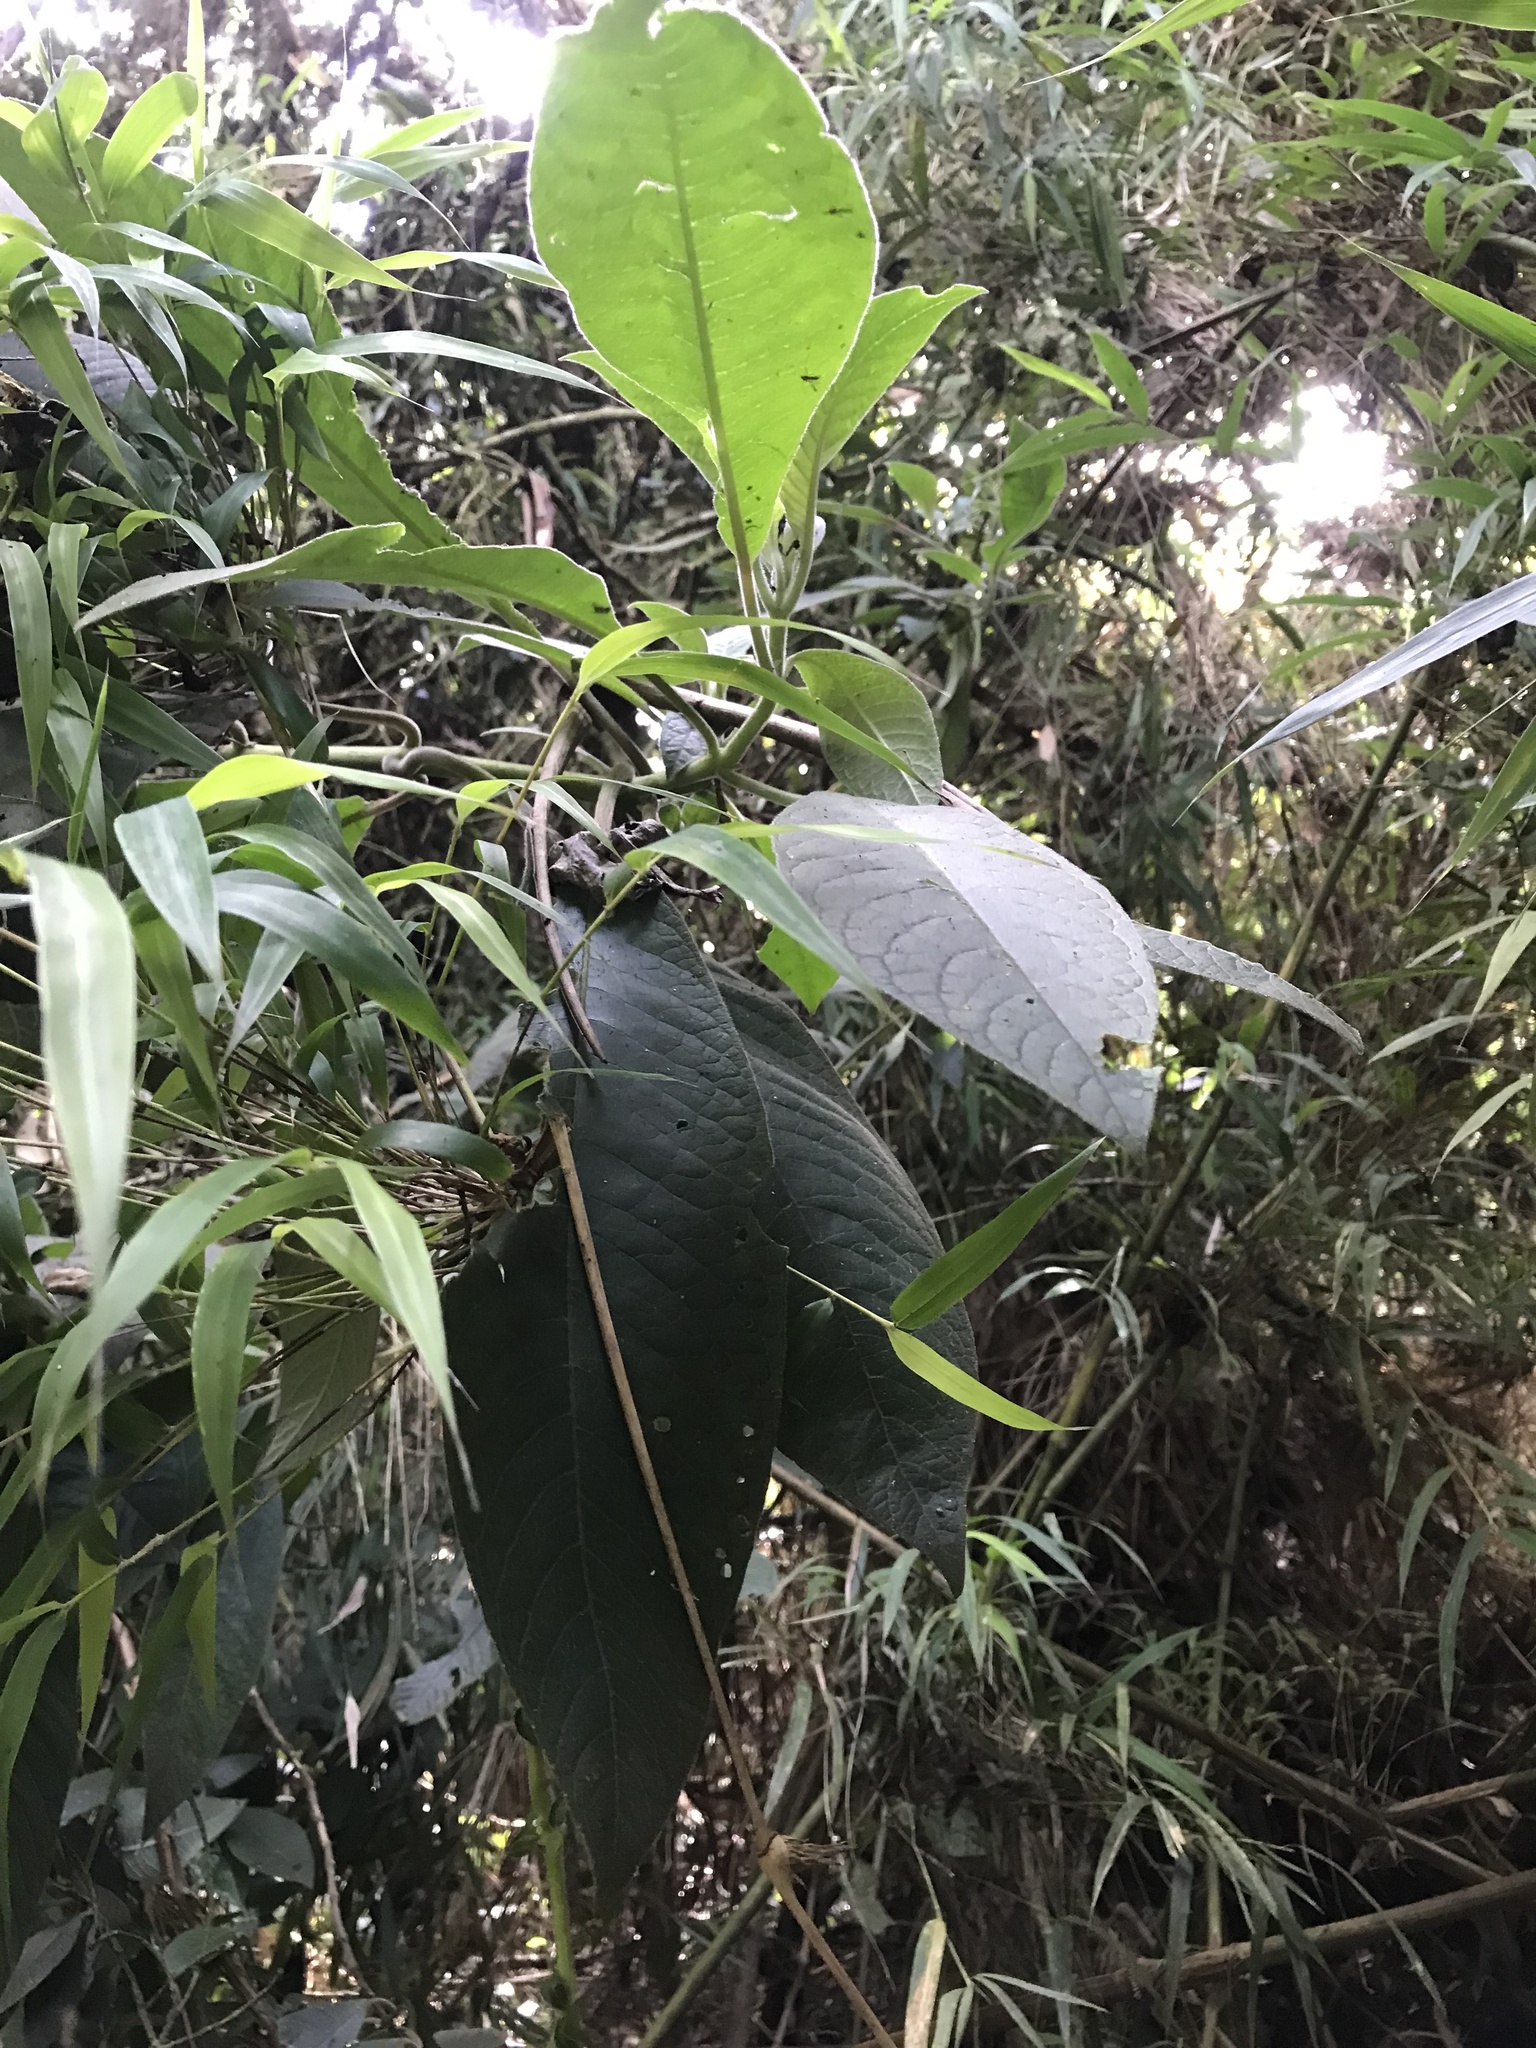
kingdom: Plantae
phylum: Tracheophyta
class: Magnoliopsida
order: Myrtales
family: Onagraceae
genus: Fuchsia
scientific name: Fuchsia boliviana
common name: Bolivian fuchsia
